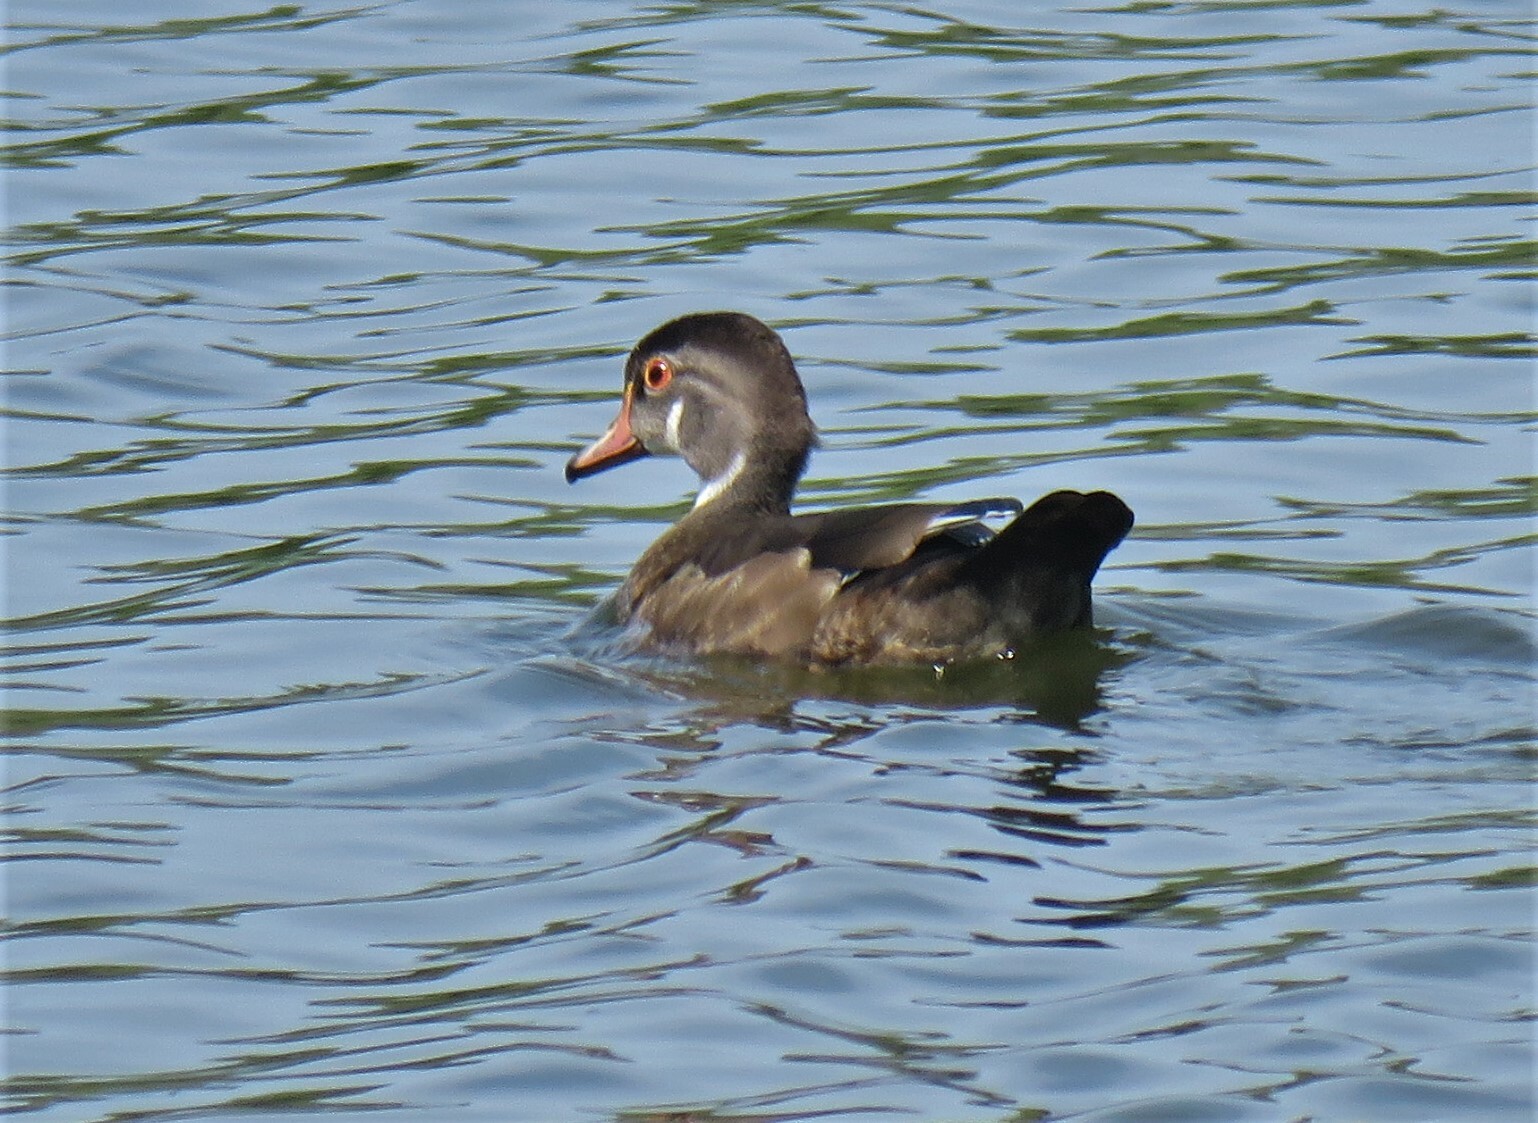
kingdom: Animalia
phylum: Chordata
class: Aves
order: Anseriformes
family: Anatidae
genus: Aix
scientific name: Aix sponsa
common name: Wood duck
